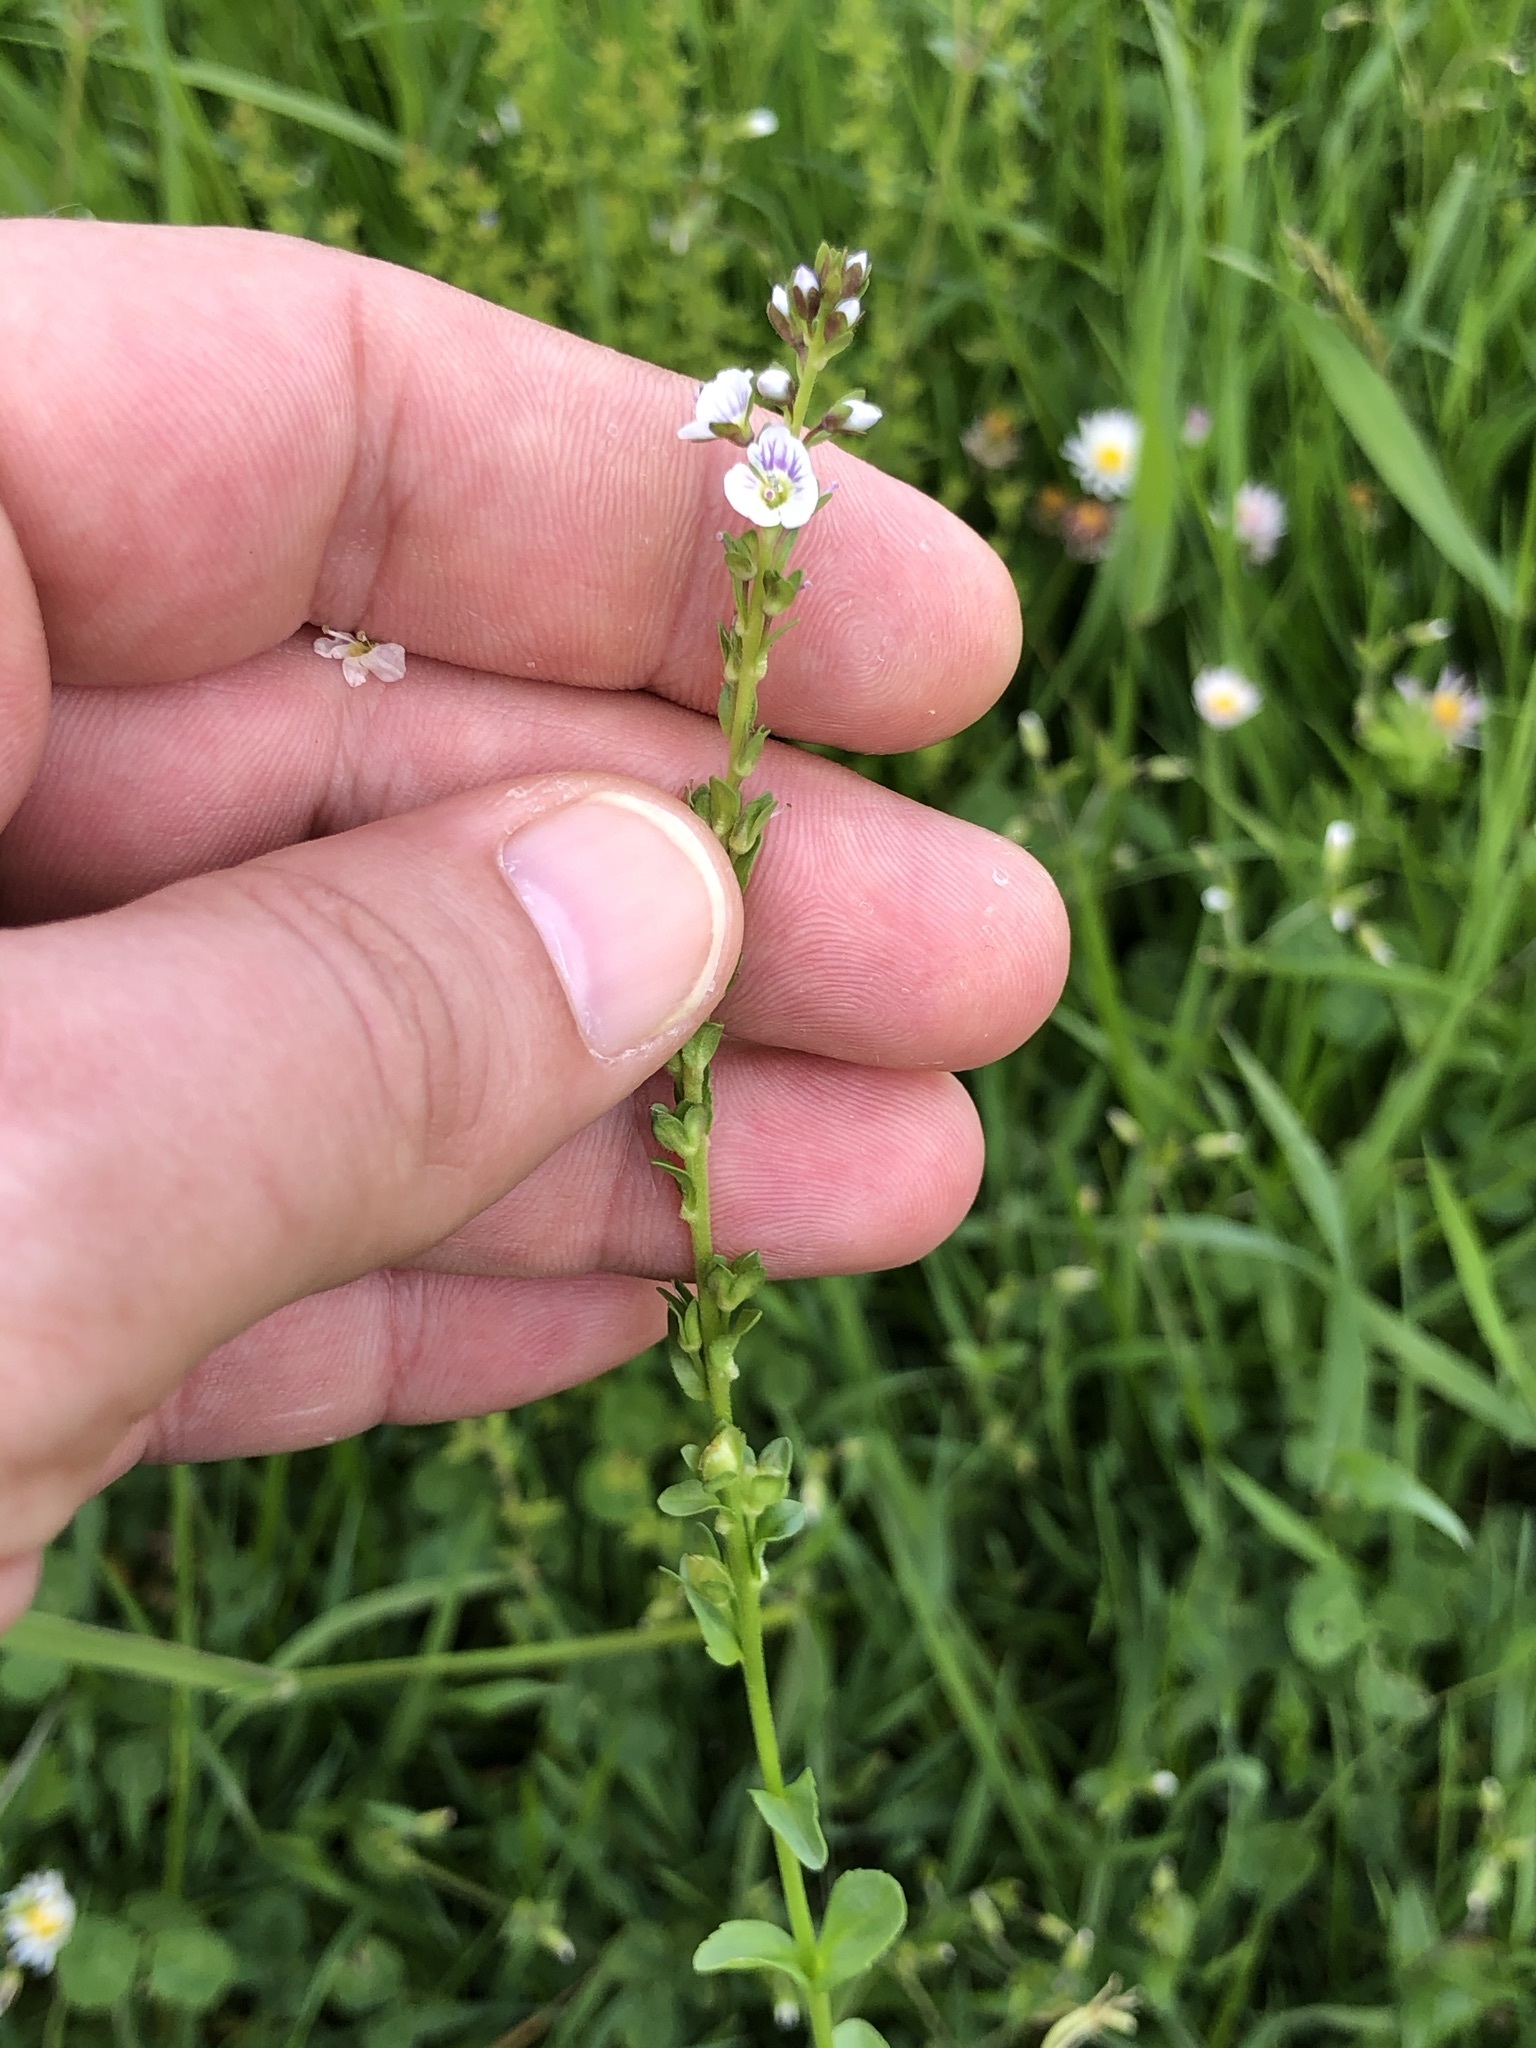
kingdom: Plantae
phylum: Tracheophyta
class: Magnoliopsida
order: Lamiales
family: Plantaginaceae
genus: Veronica
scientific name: Veronica serpyllifolia
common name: Thyme-leaved speedwell
